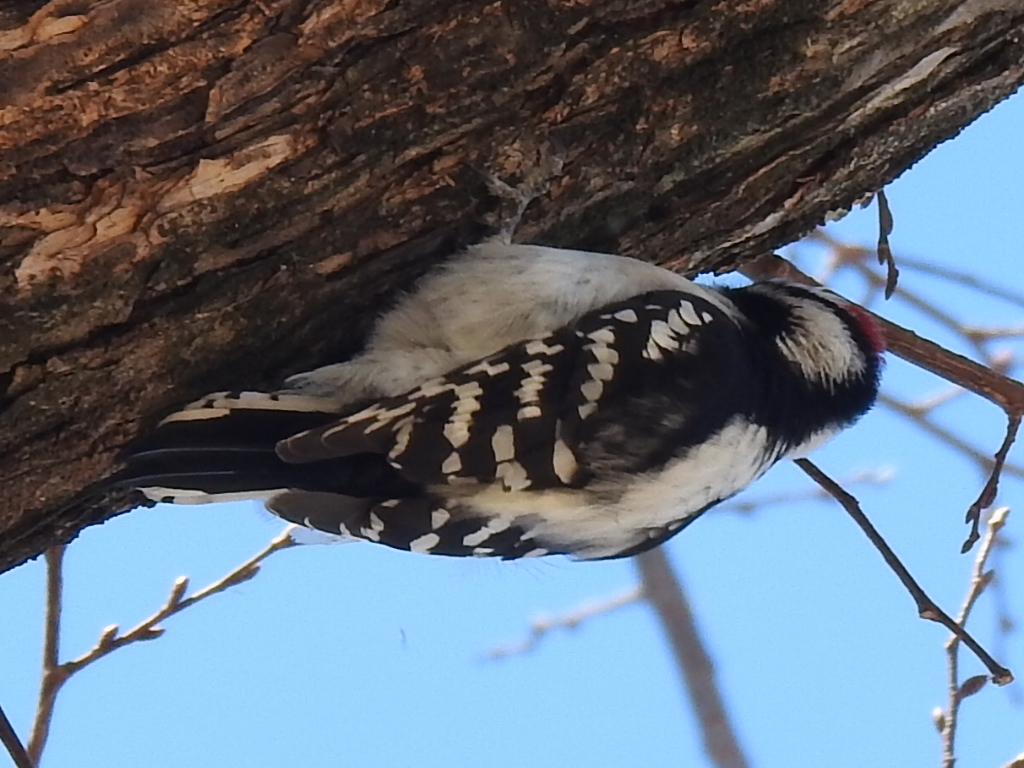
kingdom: Animalia
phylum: Chordata
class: Aves
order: Piciformes
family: Picidae
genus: Dryobates
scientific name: Dryobates pubescens
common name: Downy woodpecker
